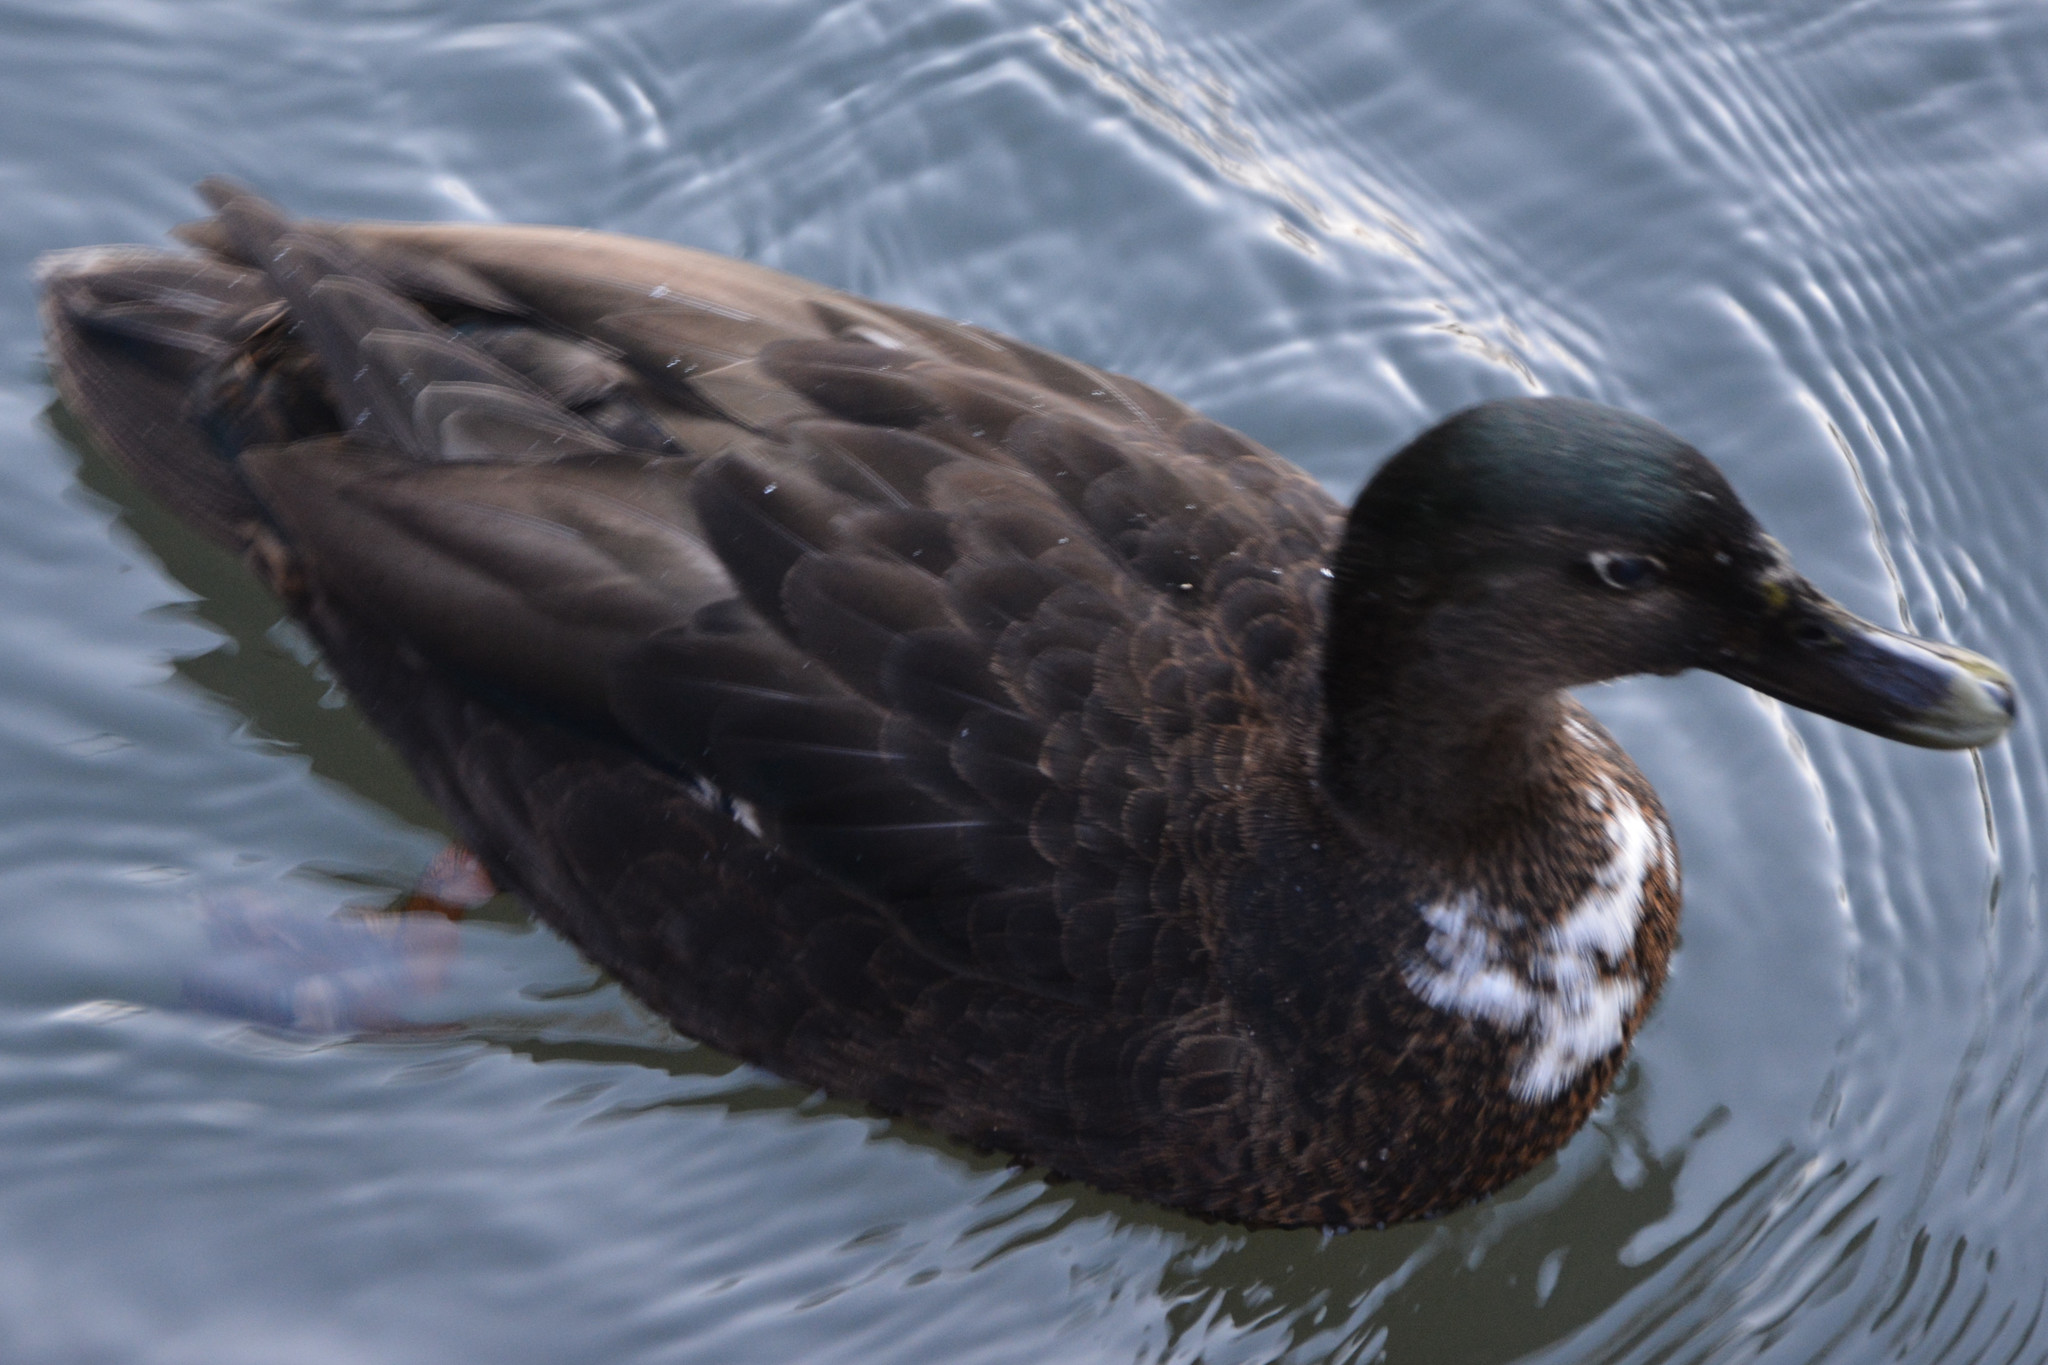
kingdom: Animalia
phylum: Chordata
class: Aves
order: Anseriformes
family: Anatidae
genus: Anas
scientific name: Anas platyrhynchos
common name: Mallard
